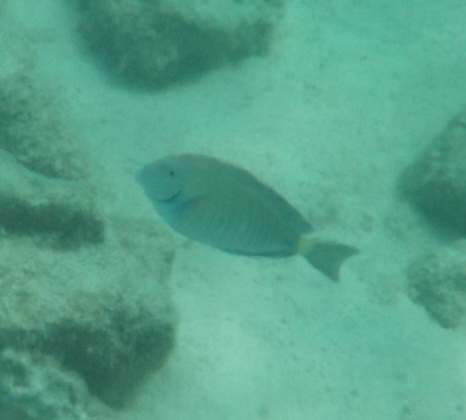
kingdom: Animalia
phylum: Chordata
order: Perciformes
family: Acanthuridae
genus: Acanthurus
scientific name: Acanthurus chirurgus
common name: Doctorfish
